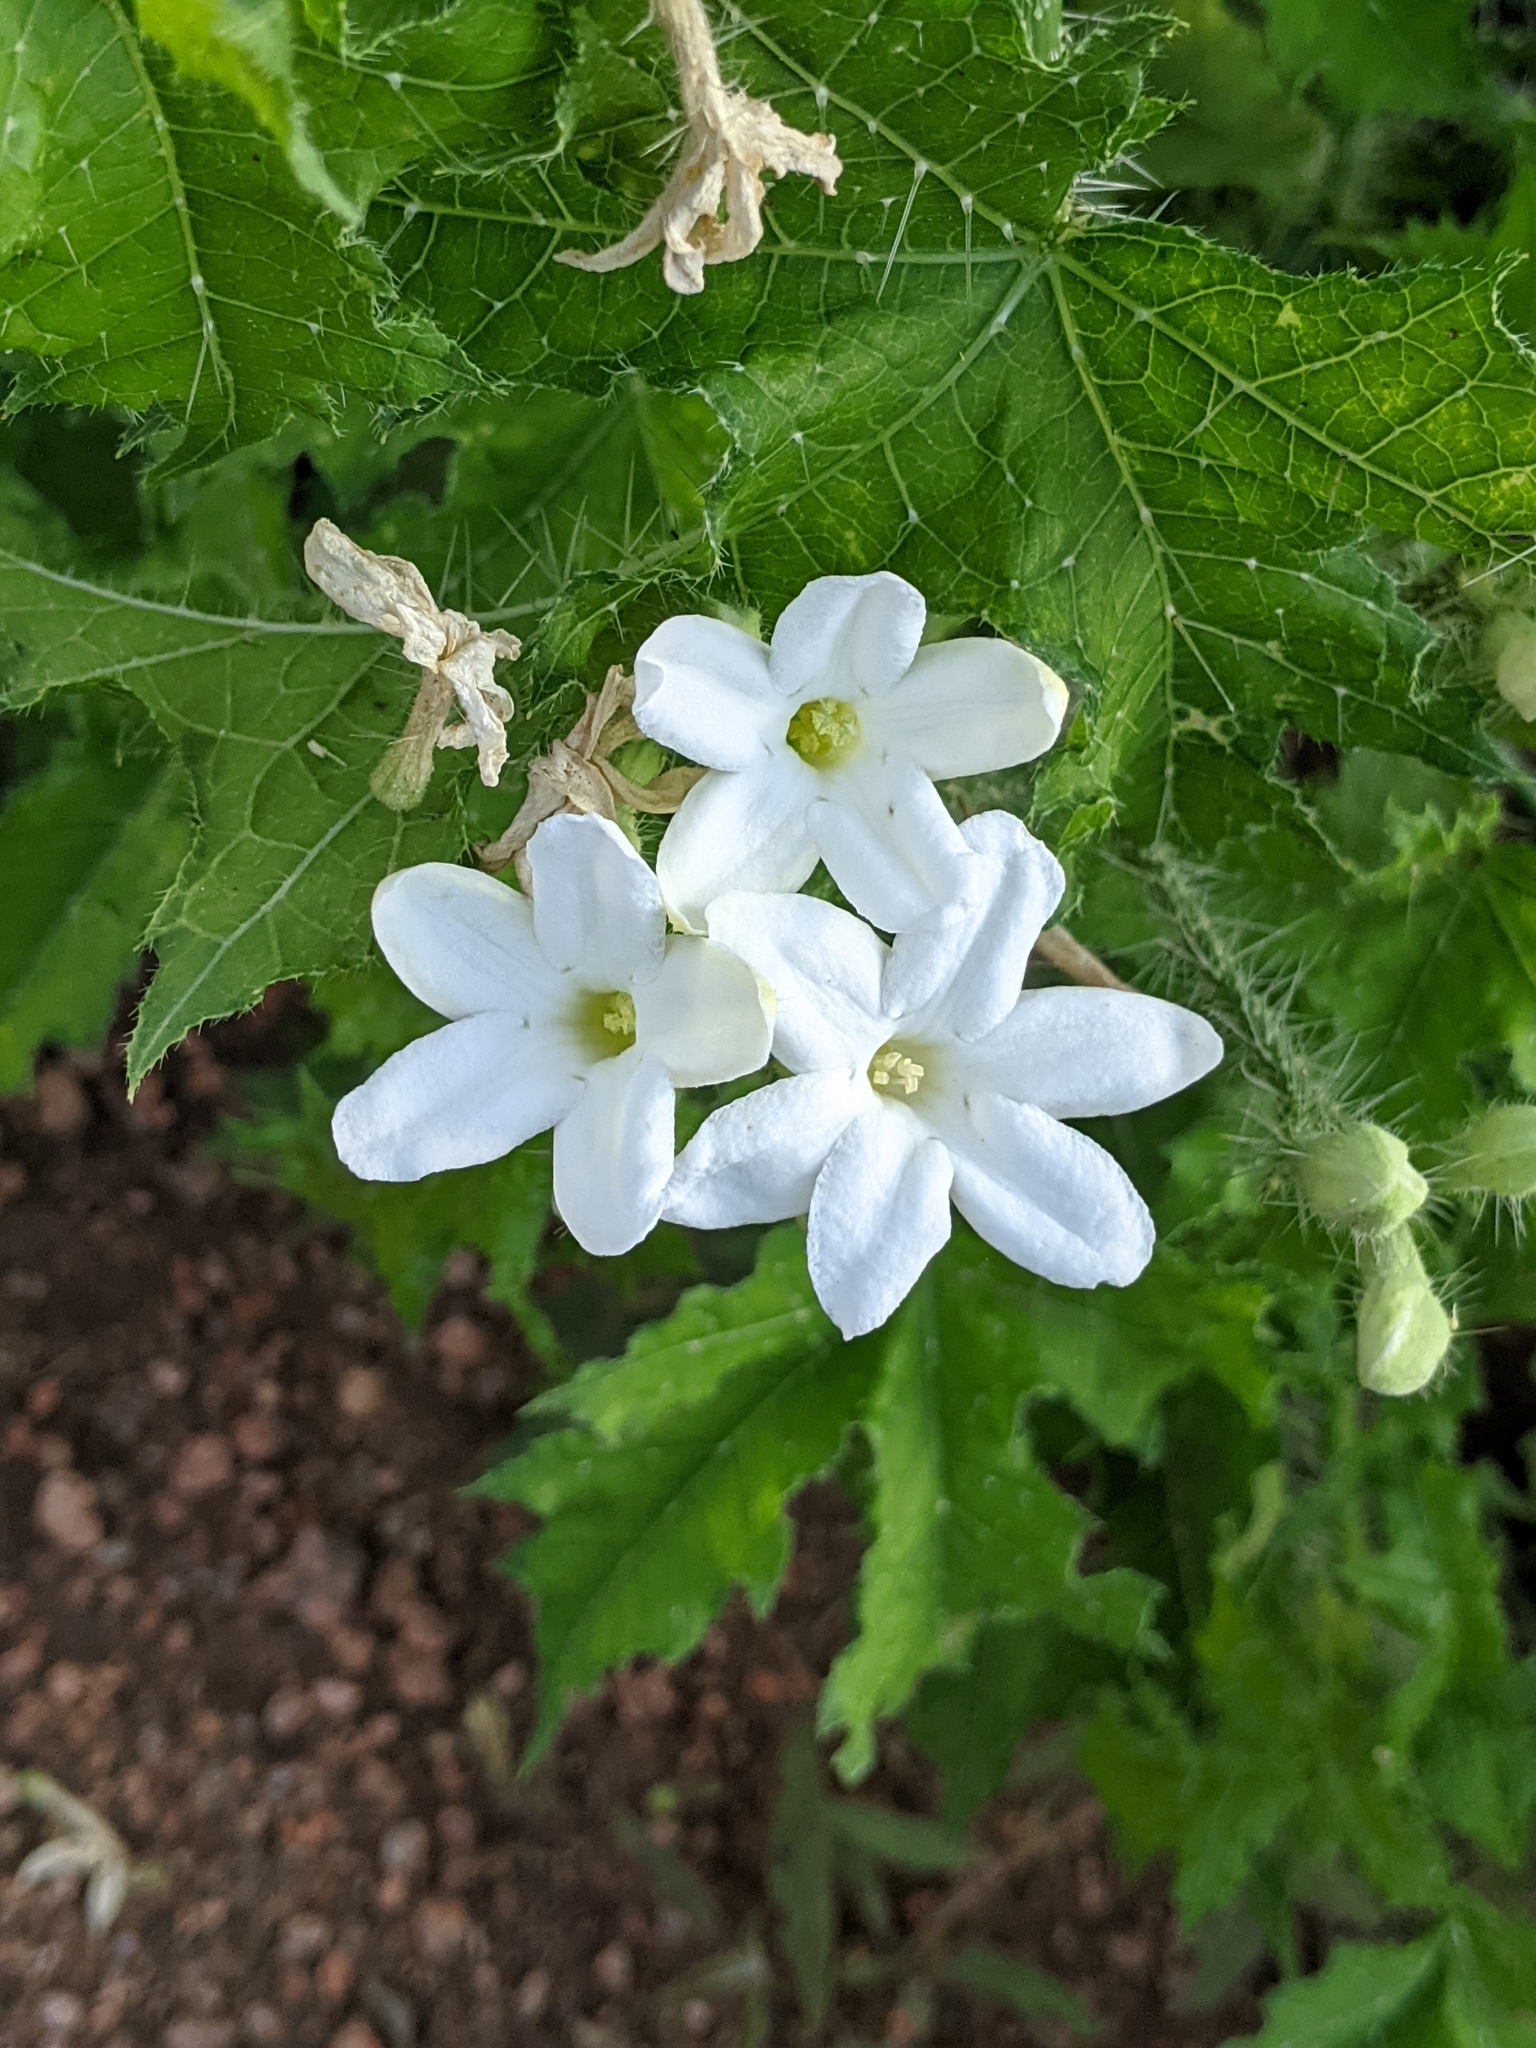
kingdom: Plantae
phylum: Tracheophyta
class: Magnoliopsida
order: Malpighiales
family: Euphorbiaceae
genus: Cnidoscolus
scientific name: Cnidoscolus texanus
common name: Texas bull-nettle
